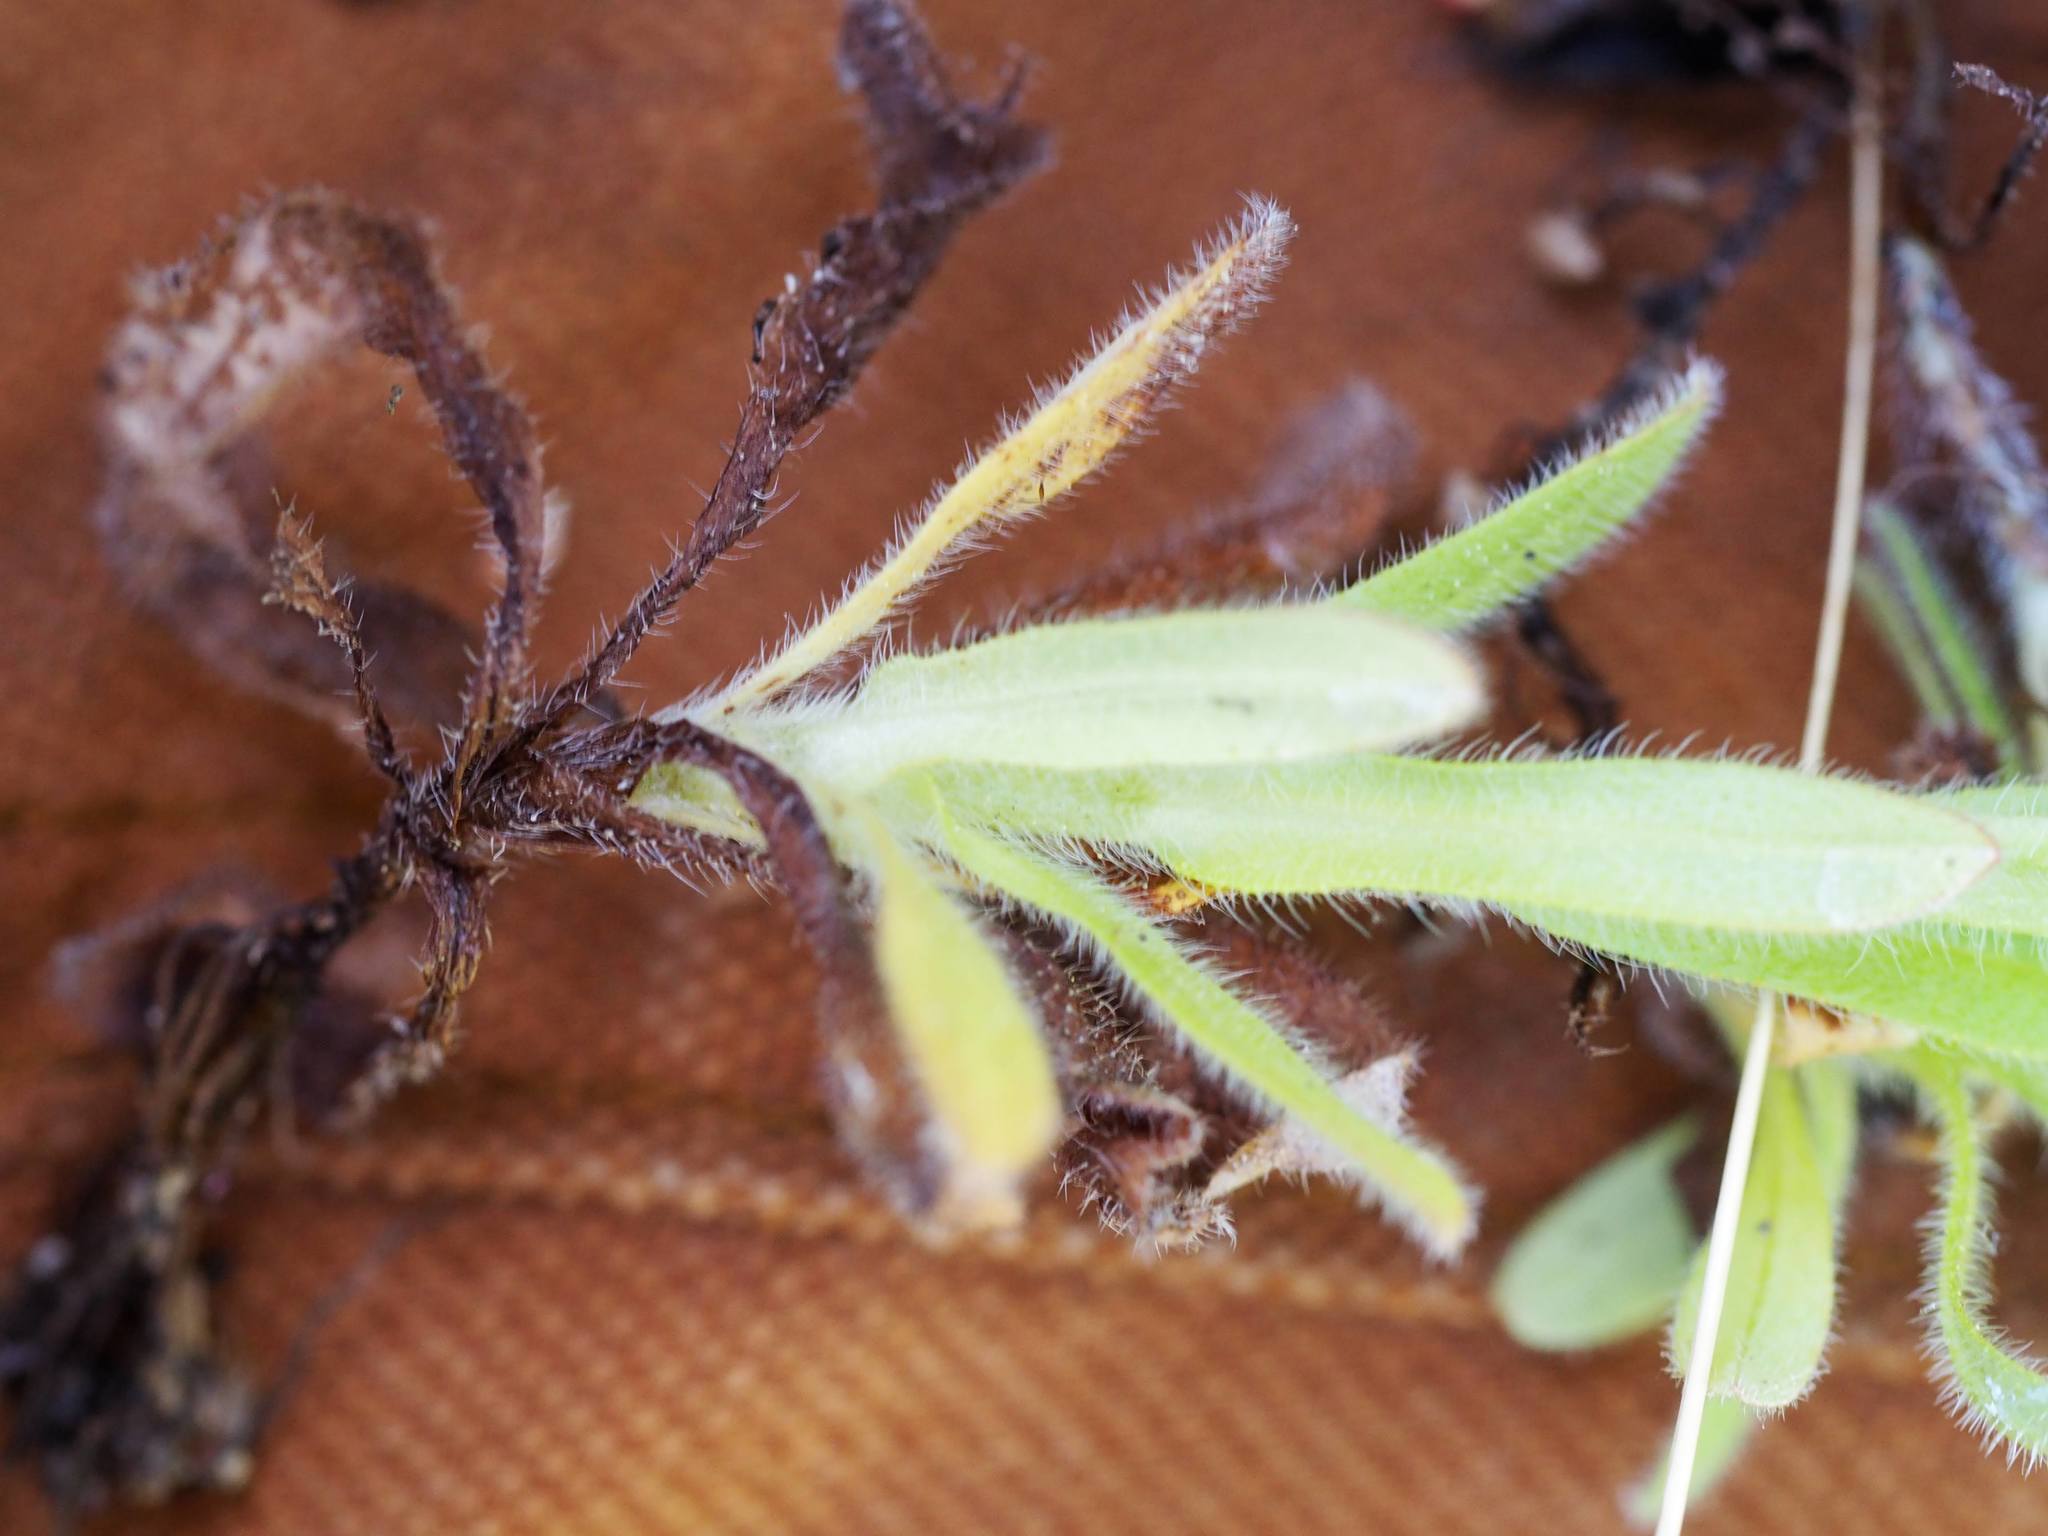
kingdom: Plantae
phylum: Tracheophyta
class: Magnoliopsida
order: Boraginales
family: Boraginaceae
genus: Myosotis
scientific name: Myosotis discolor
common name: Changing forget-me-not
